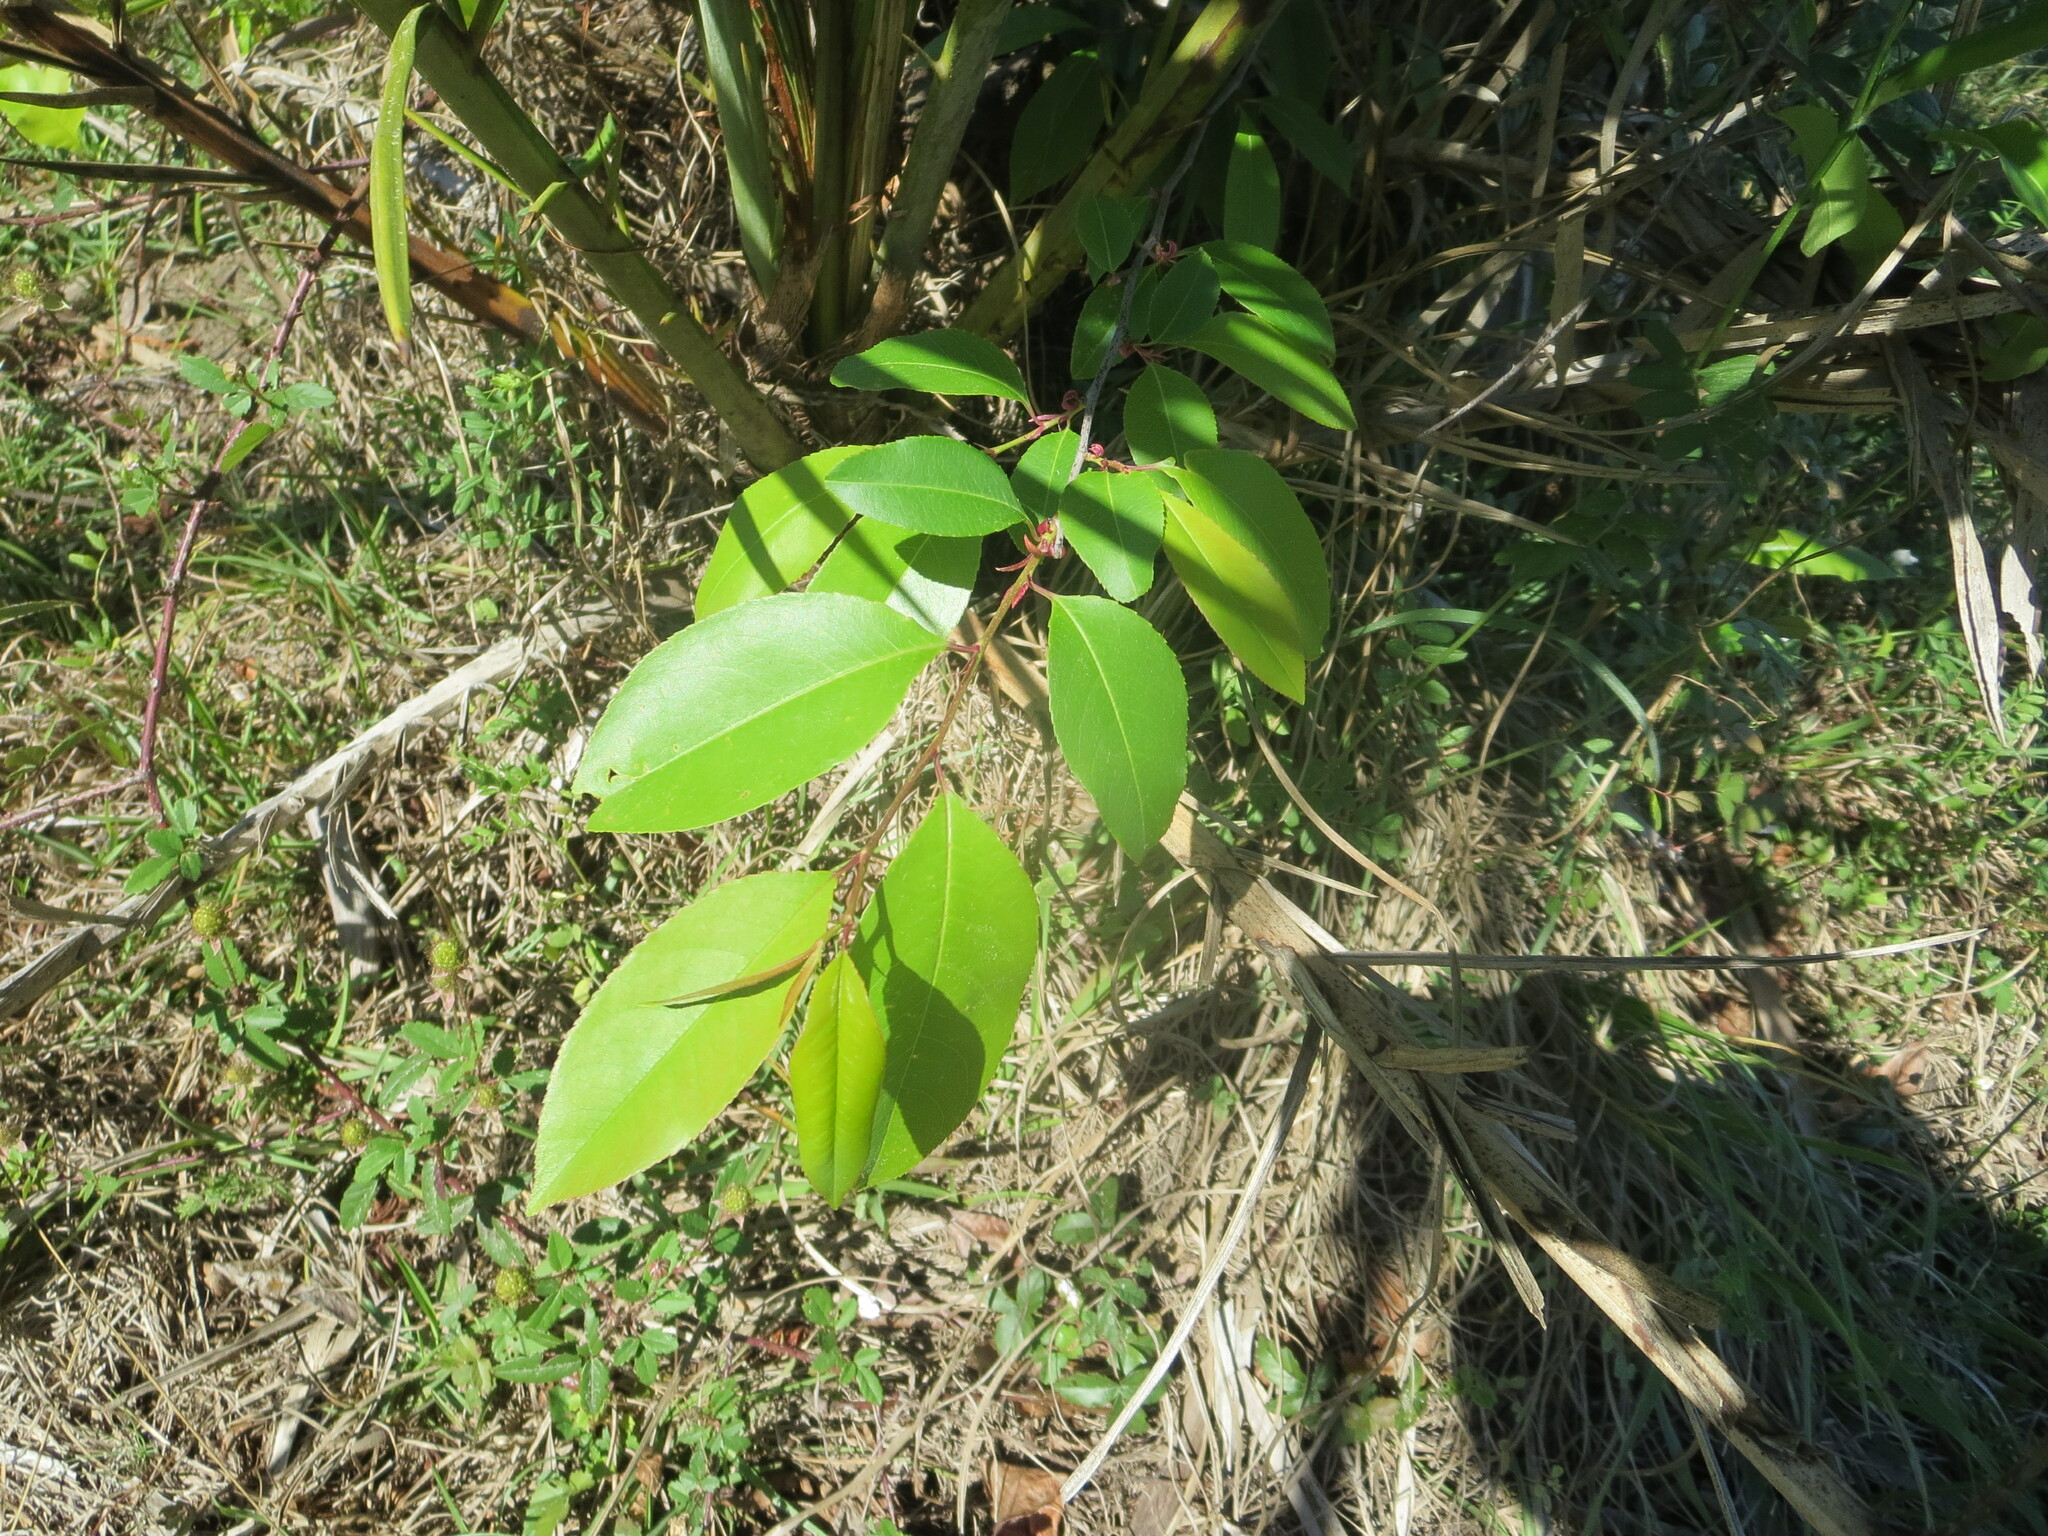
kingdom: Plantae
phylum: Tracheophyta
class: Magnoliopsida
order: Rosales
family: Rosaceae
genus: Prunus
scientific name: Prunus serotina
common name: Black cherry
